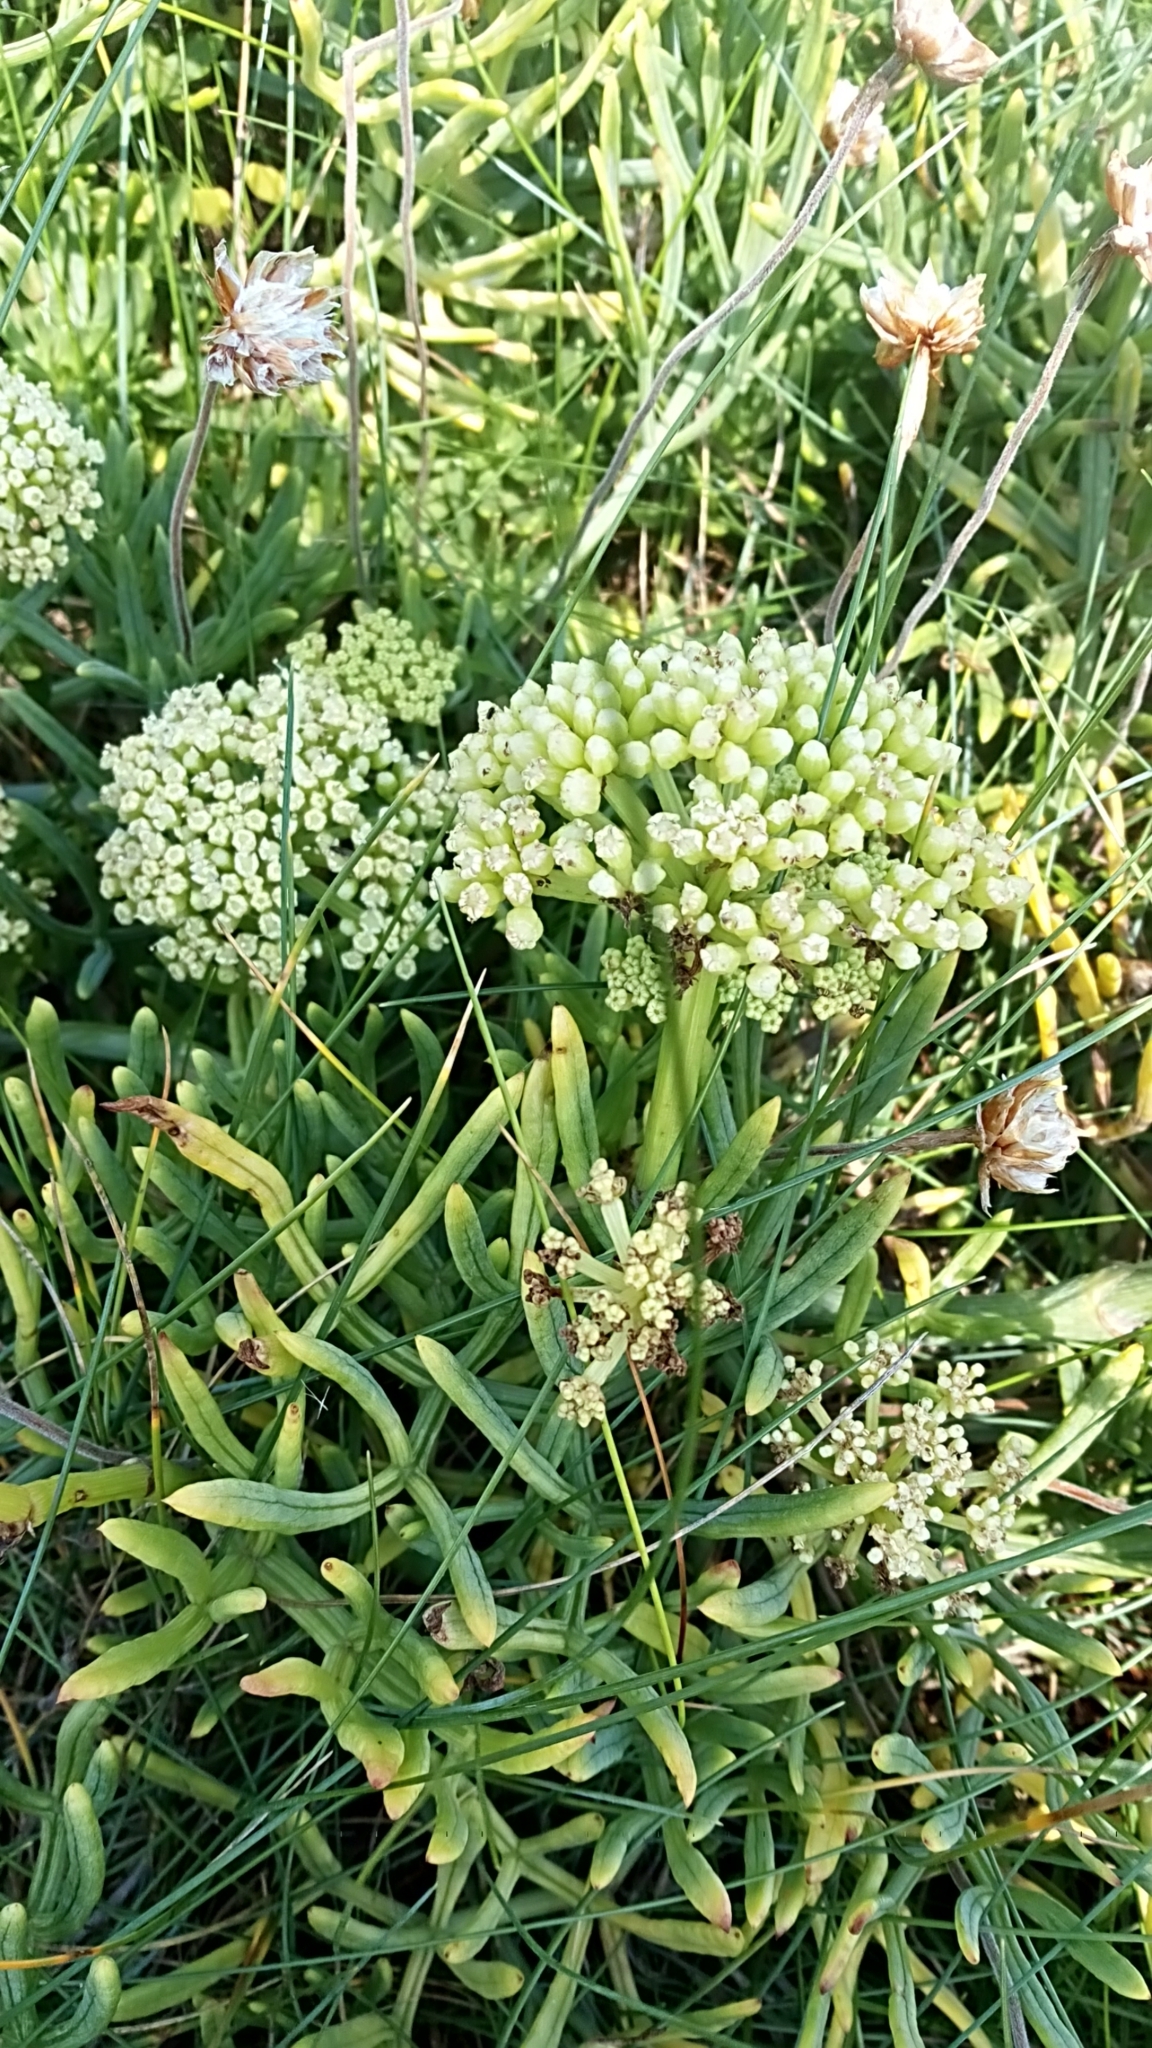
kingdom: Plantae
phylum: Tracheophyta
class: Magnoliopsida
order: Apiales
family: Apiaceae
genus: Crithmum
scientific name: Crithmum maritimum
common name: Rock samphire
